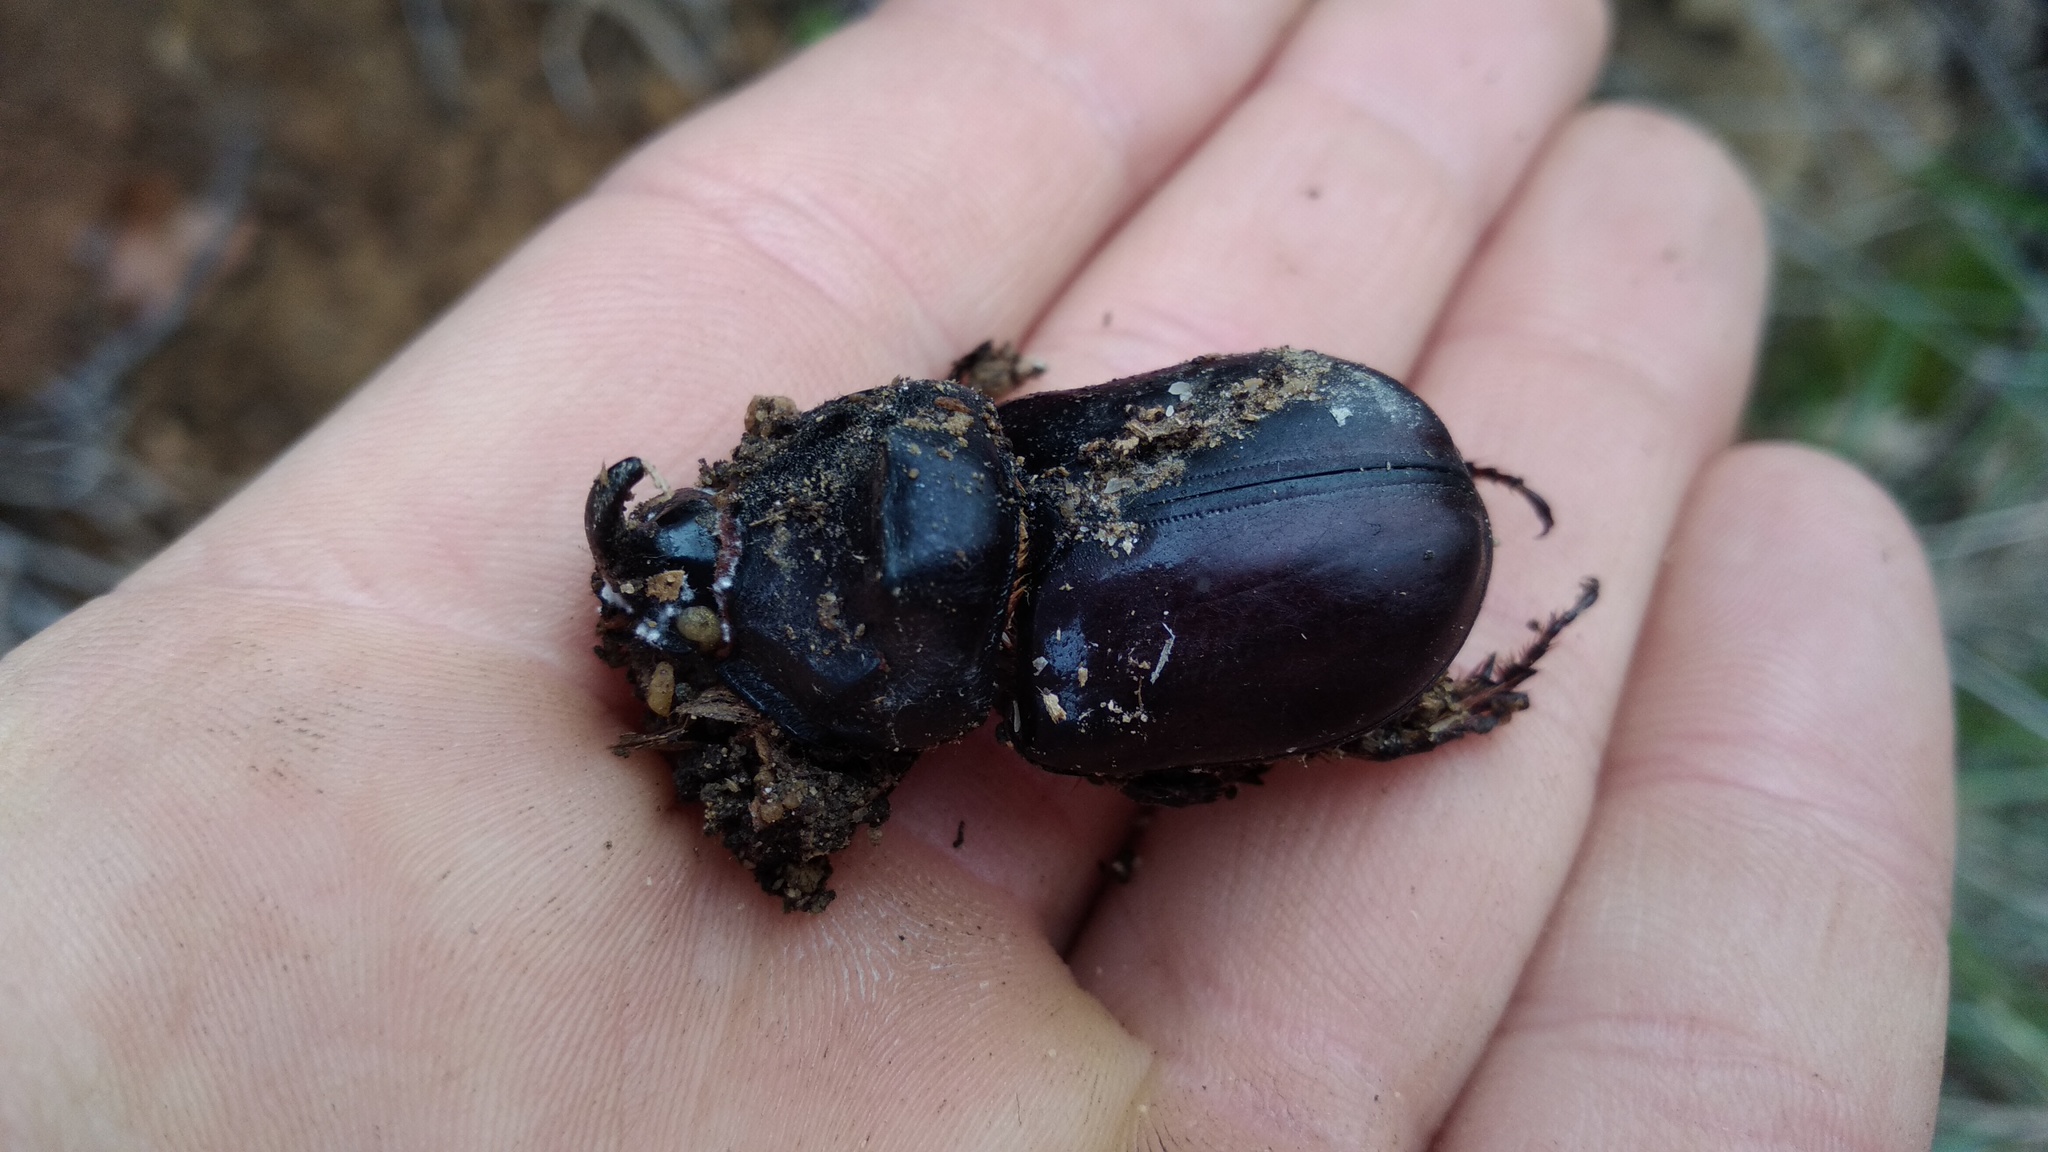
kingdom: Animalia
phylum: Arthropoda
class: Insecta
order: Coleoptera
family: Scarabaeidae
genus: Oryctes
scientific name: Oryctes nasicornis
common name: European rhinoceros beetle
